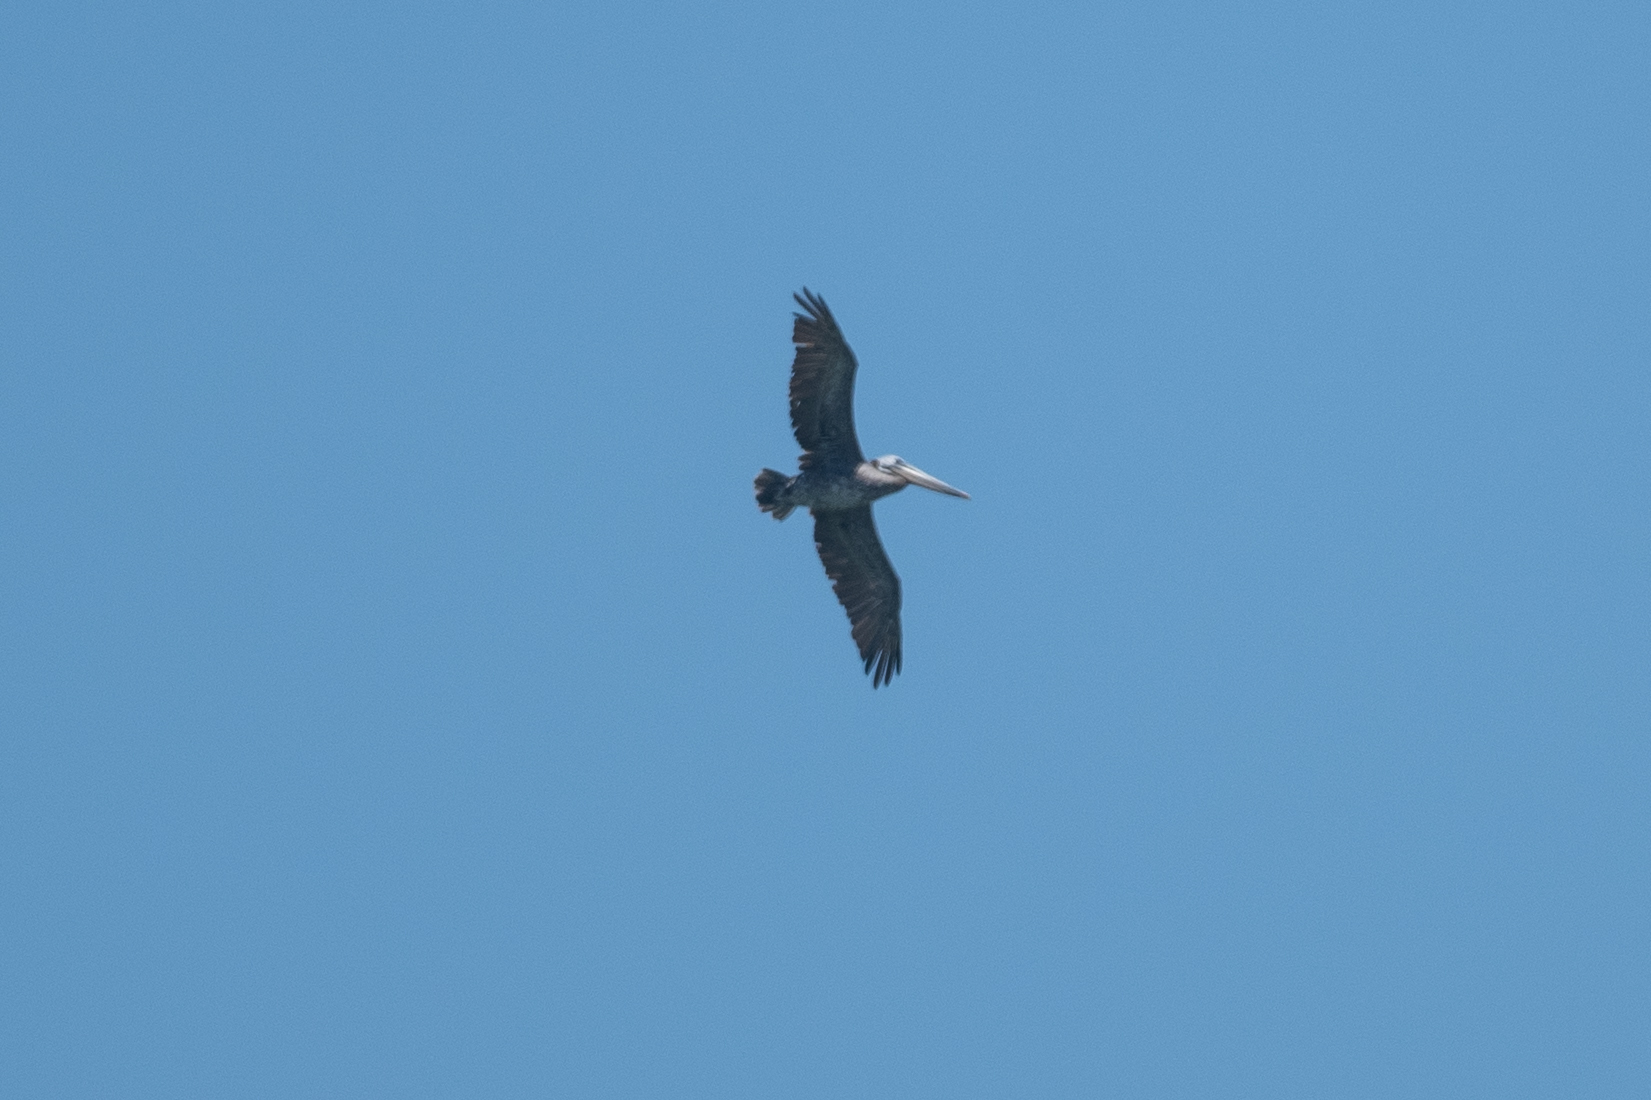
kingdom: Animalia
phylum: Chordata
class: Aves
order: Pelecaniformes
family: Pelecanidae
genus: Pelecanus
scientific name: Pelecanus occidentalis
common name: Brown pelican
